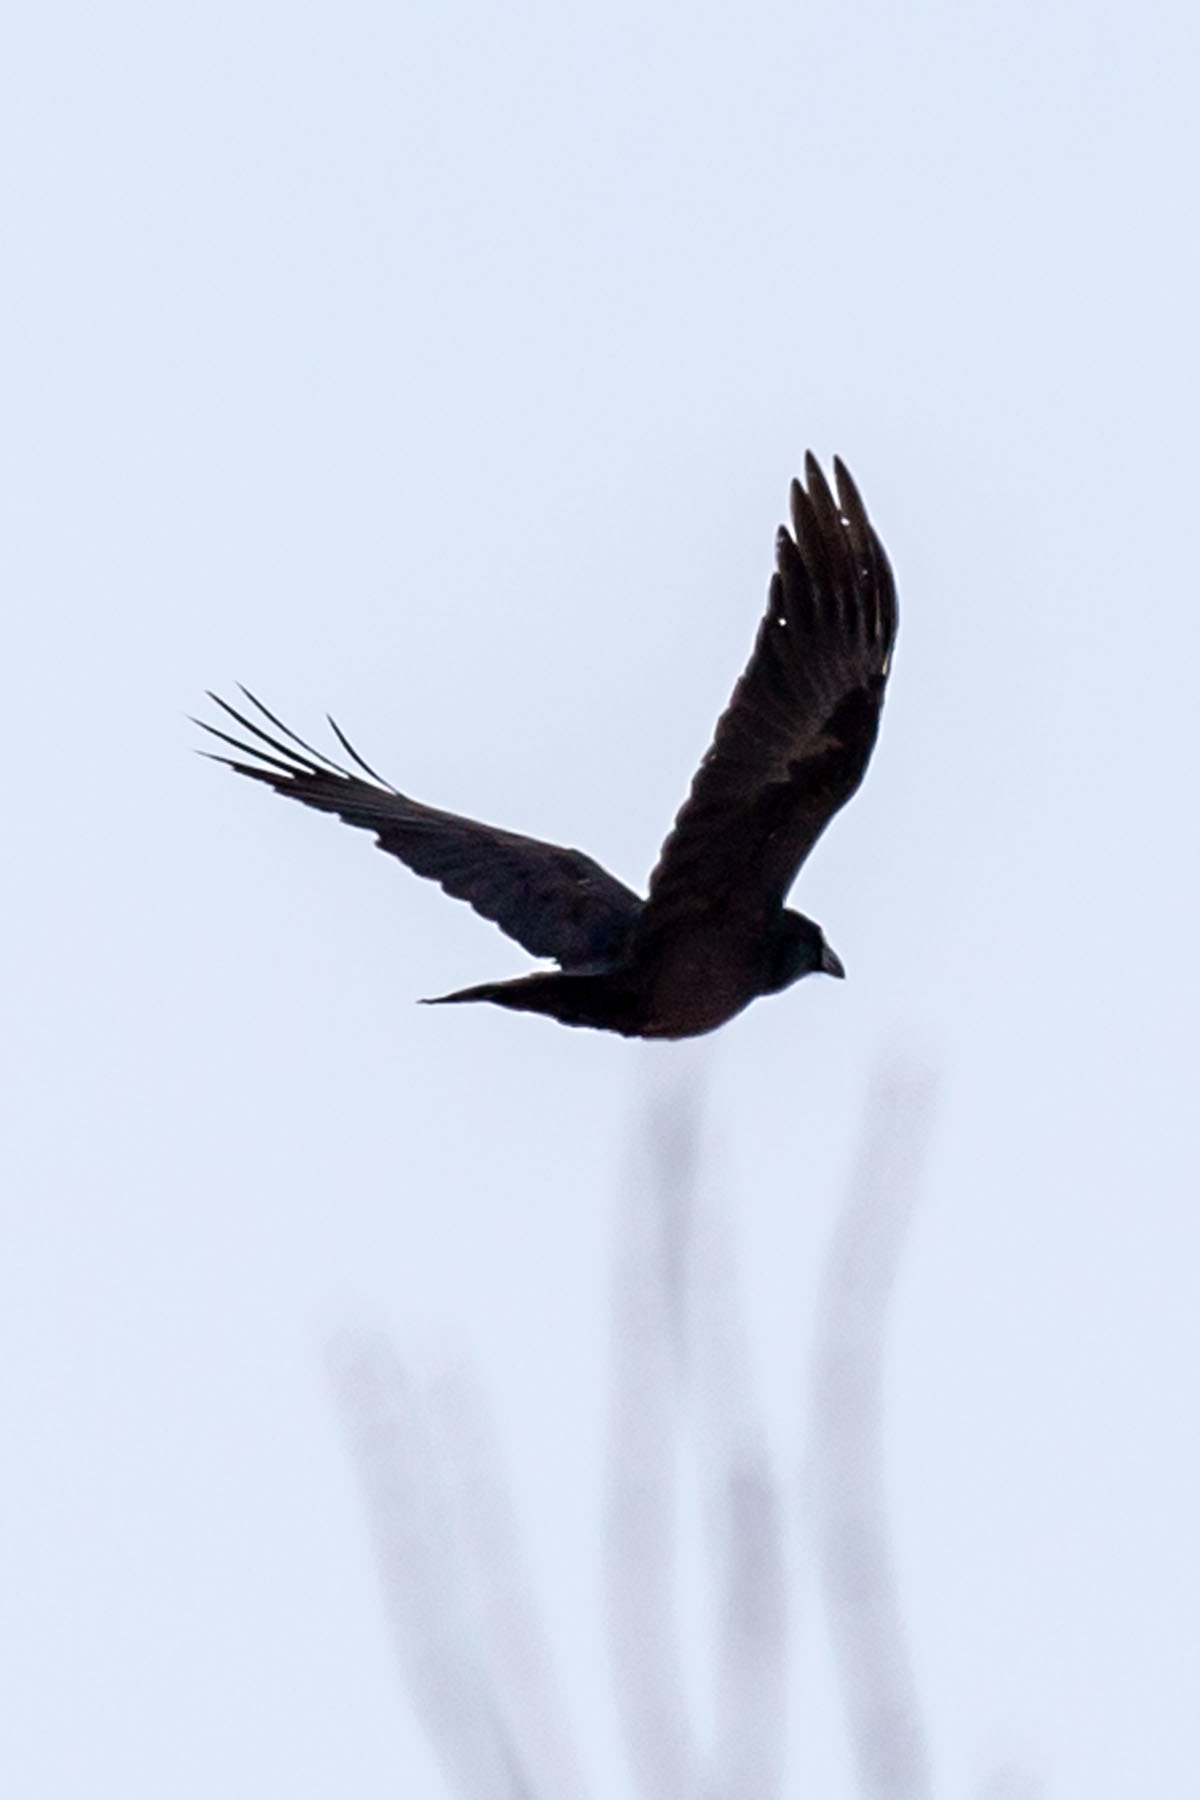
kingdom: Animalia
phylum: Chordata
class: Aves
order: Passeriformes
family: Corvidae
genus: Corvus
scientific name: Corvus ossifragus
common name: Fish crow
